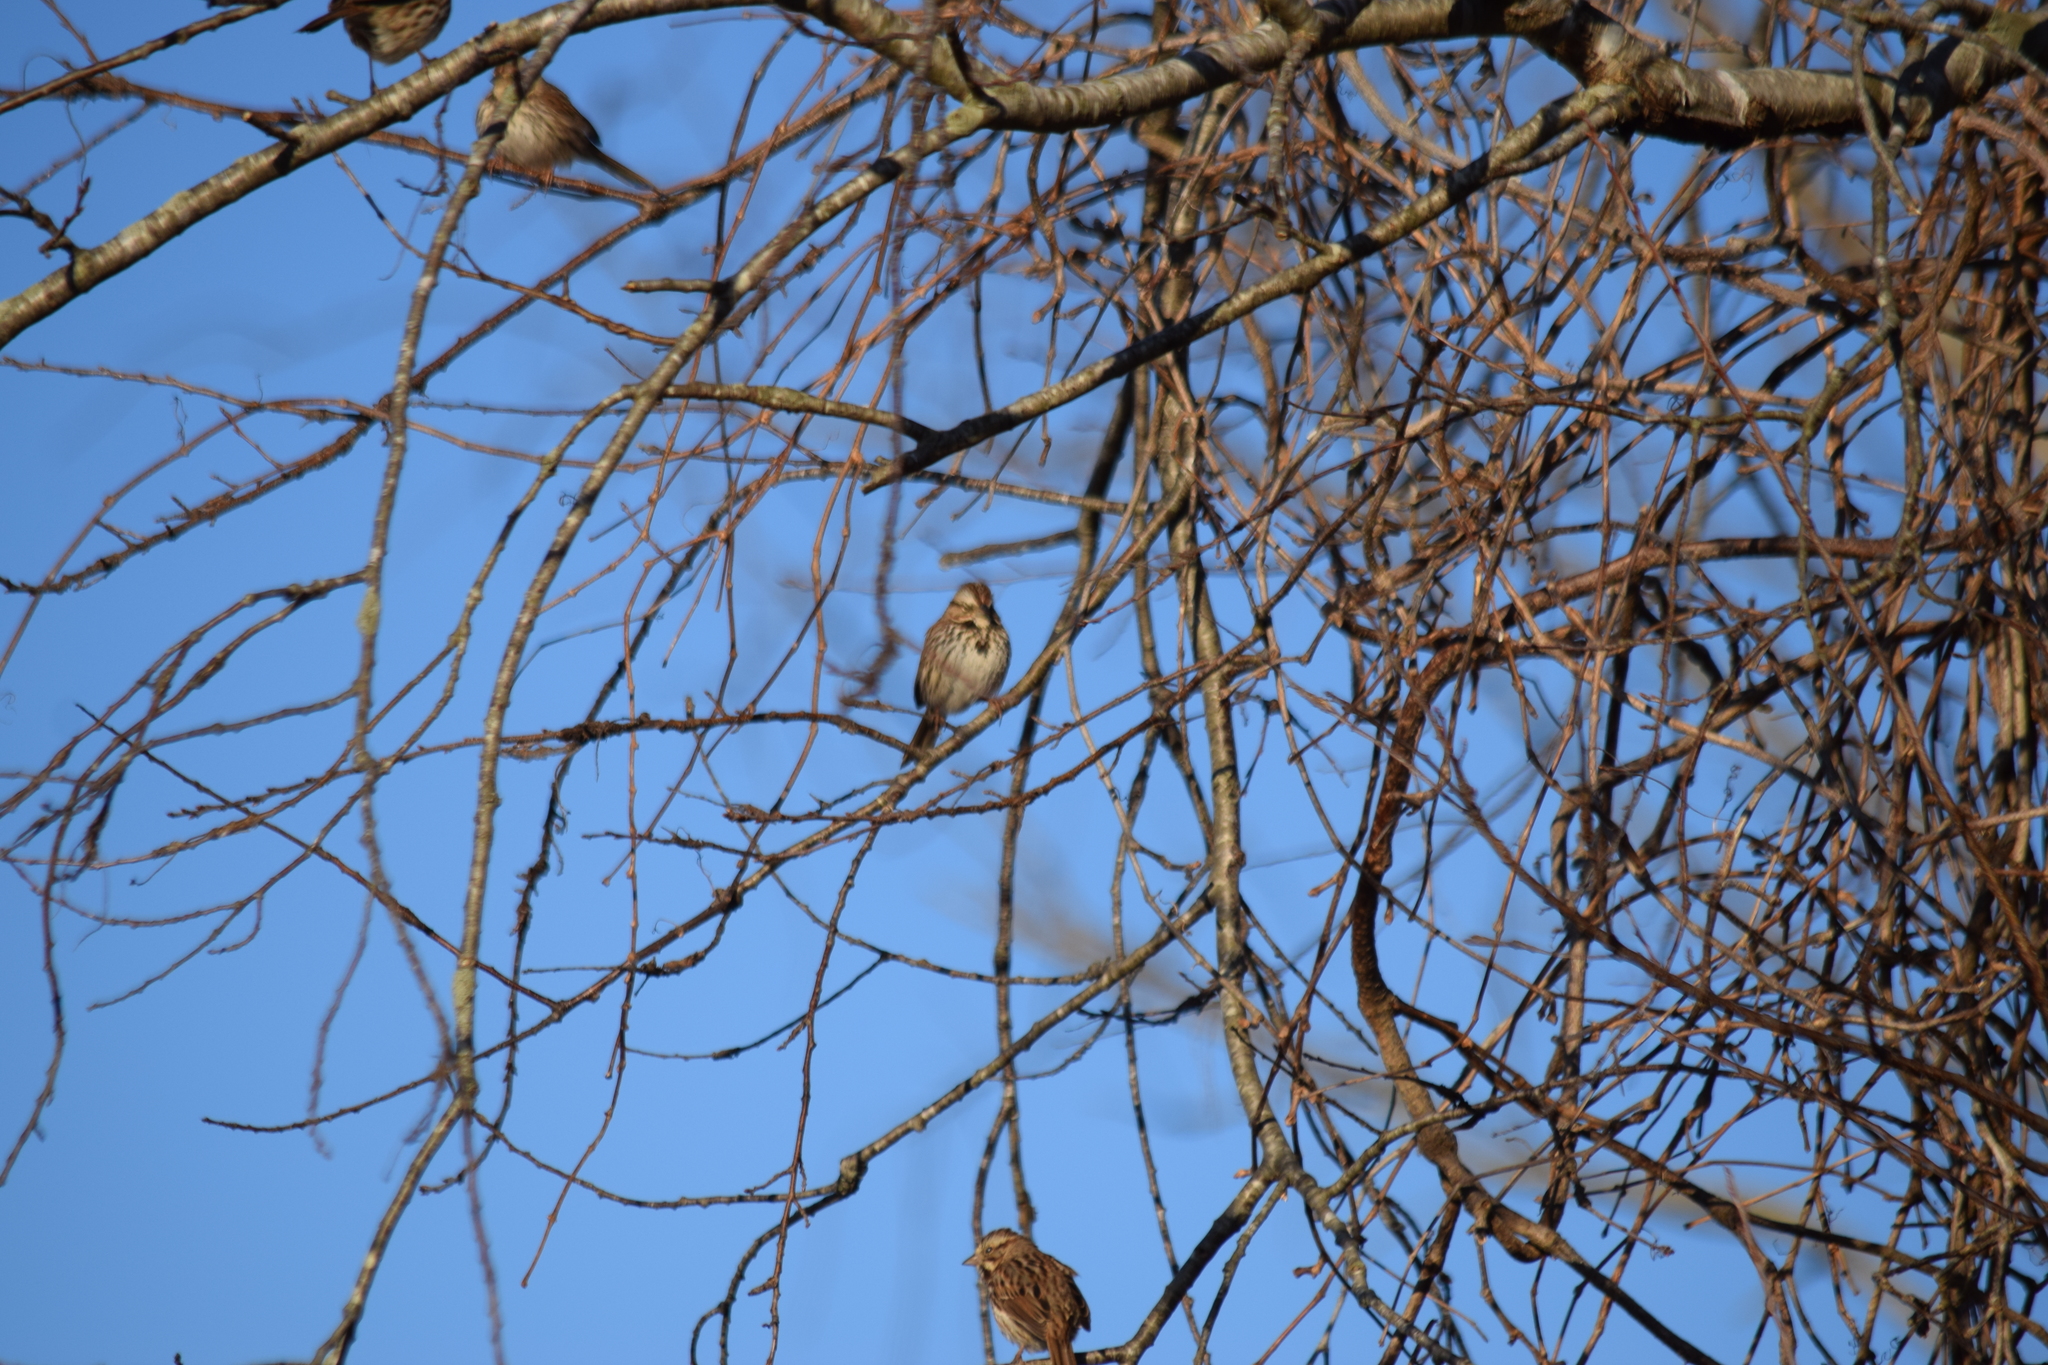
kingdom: Animalia
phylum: Chordata
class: Aves
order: Passeriformes
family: Passerellidae
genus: Melospiza
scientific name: Melospiza melodia
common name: Song sparrow
